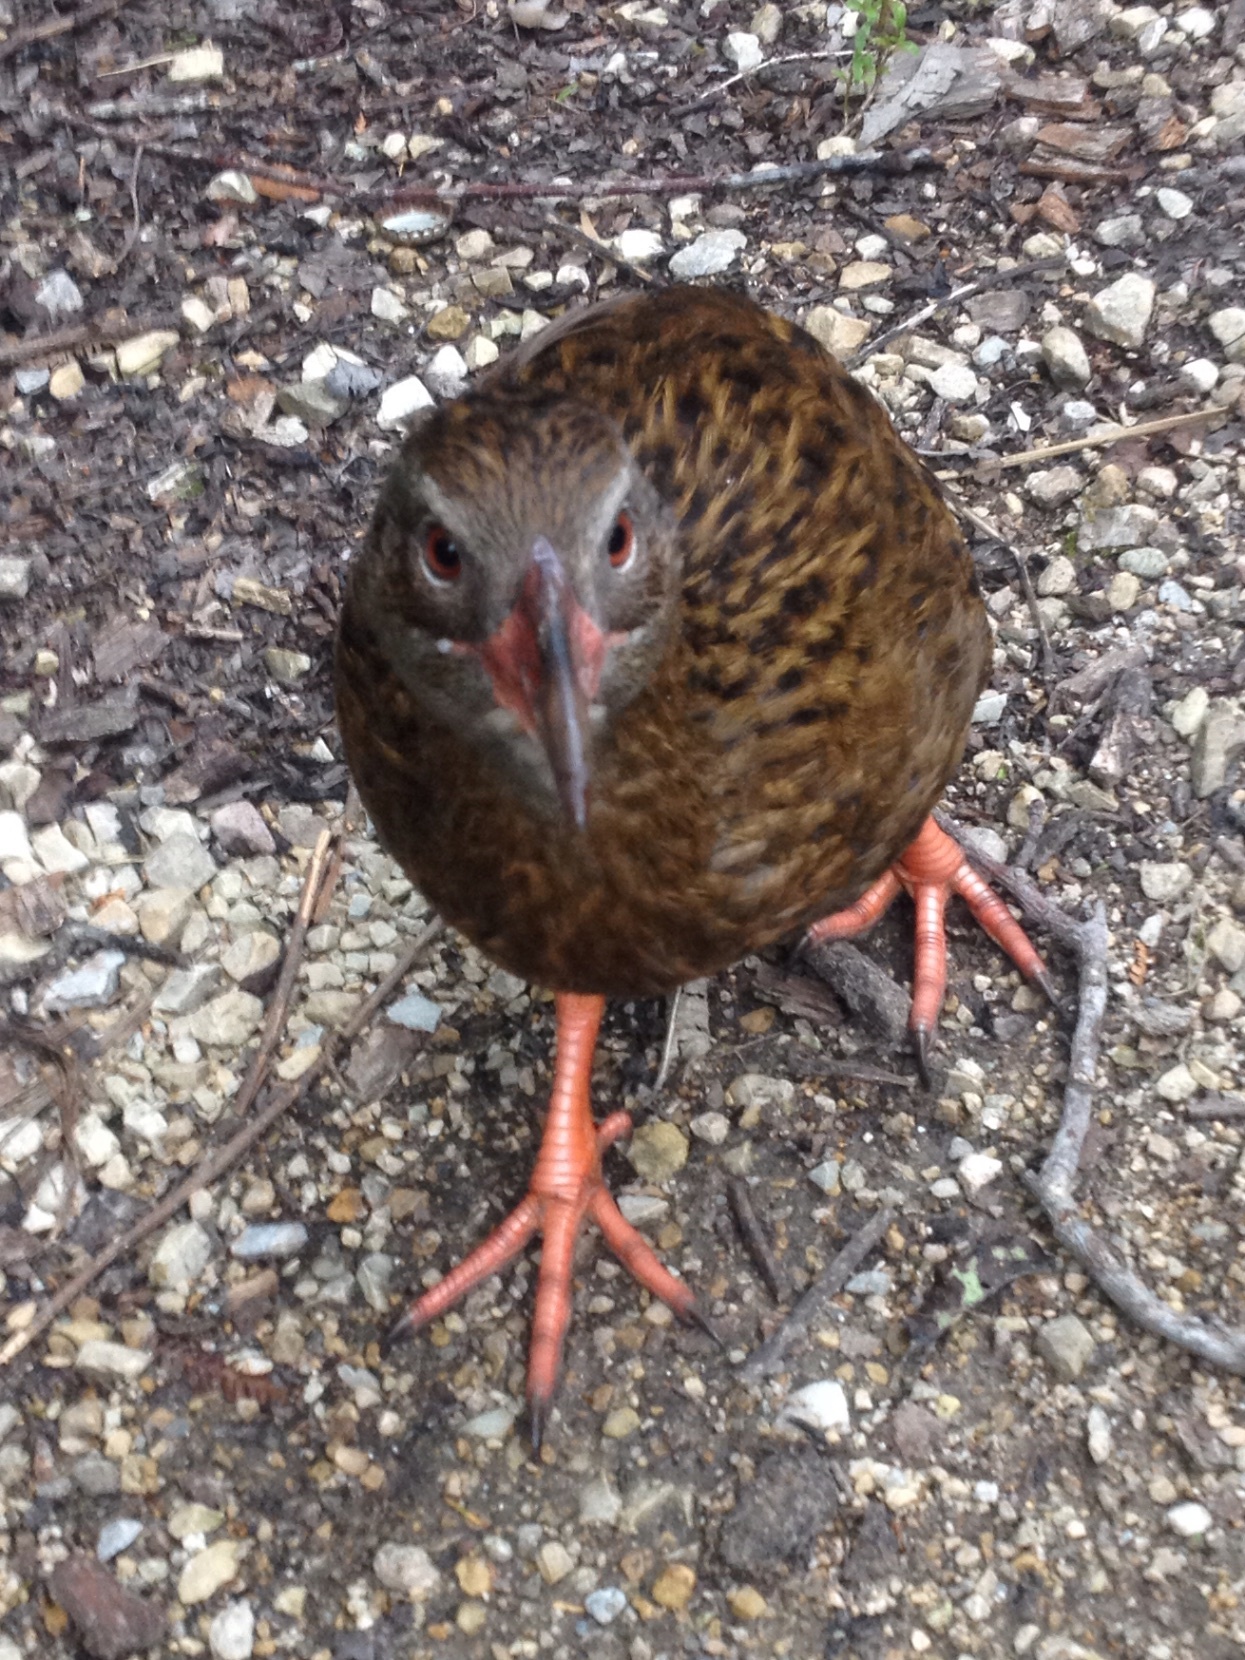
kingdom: Animalia
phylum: Chordata
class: Aves
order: Gruiformes
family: Rallidae
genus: Gallirallus
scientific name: Gallirallus australis
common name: Weka
